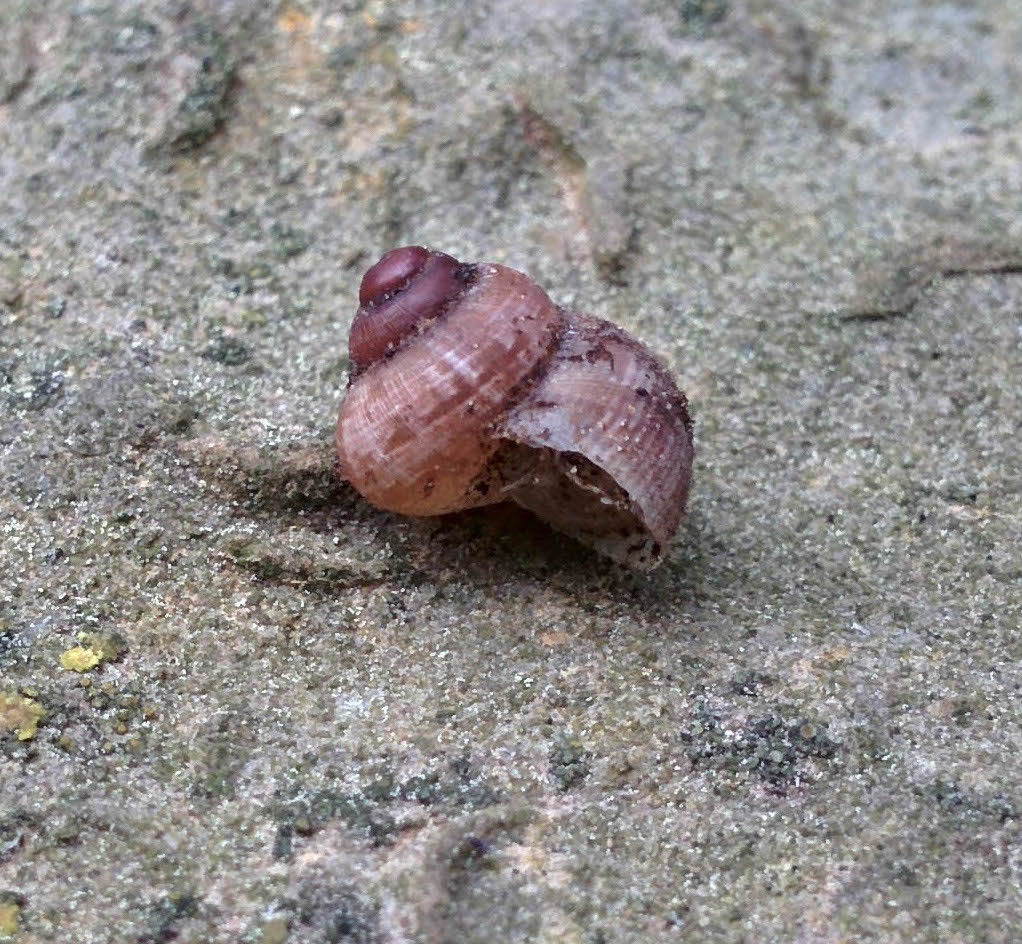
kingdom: Animalia
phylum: Mollusca
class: Gastropoda
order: Littorinimorpha
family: Pomatiidae
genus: Pomatias
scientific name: Pomatias elegans
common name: Red-mouthed snail
